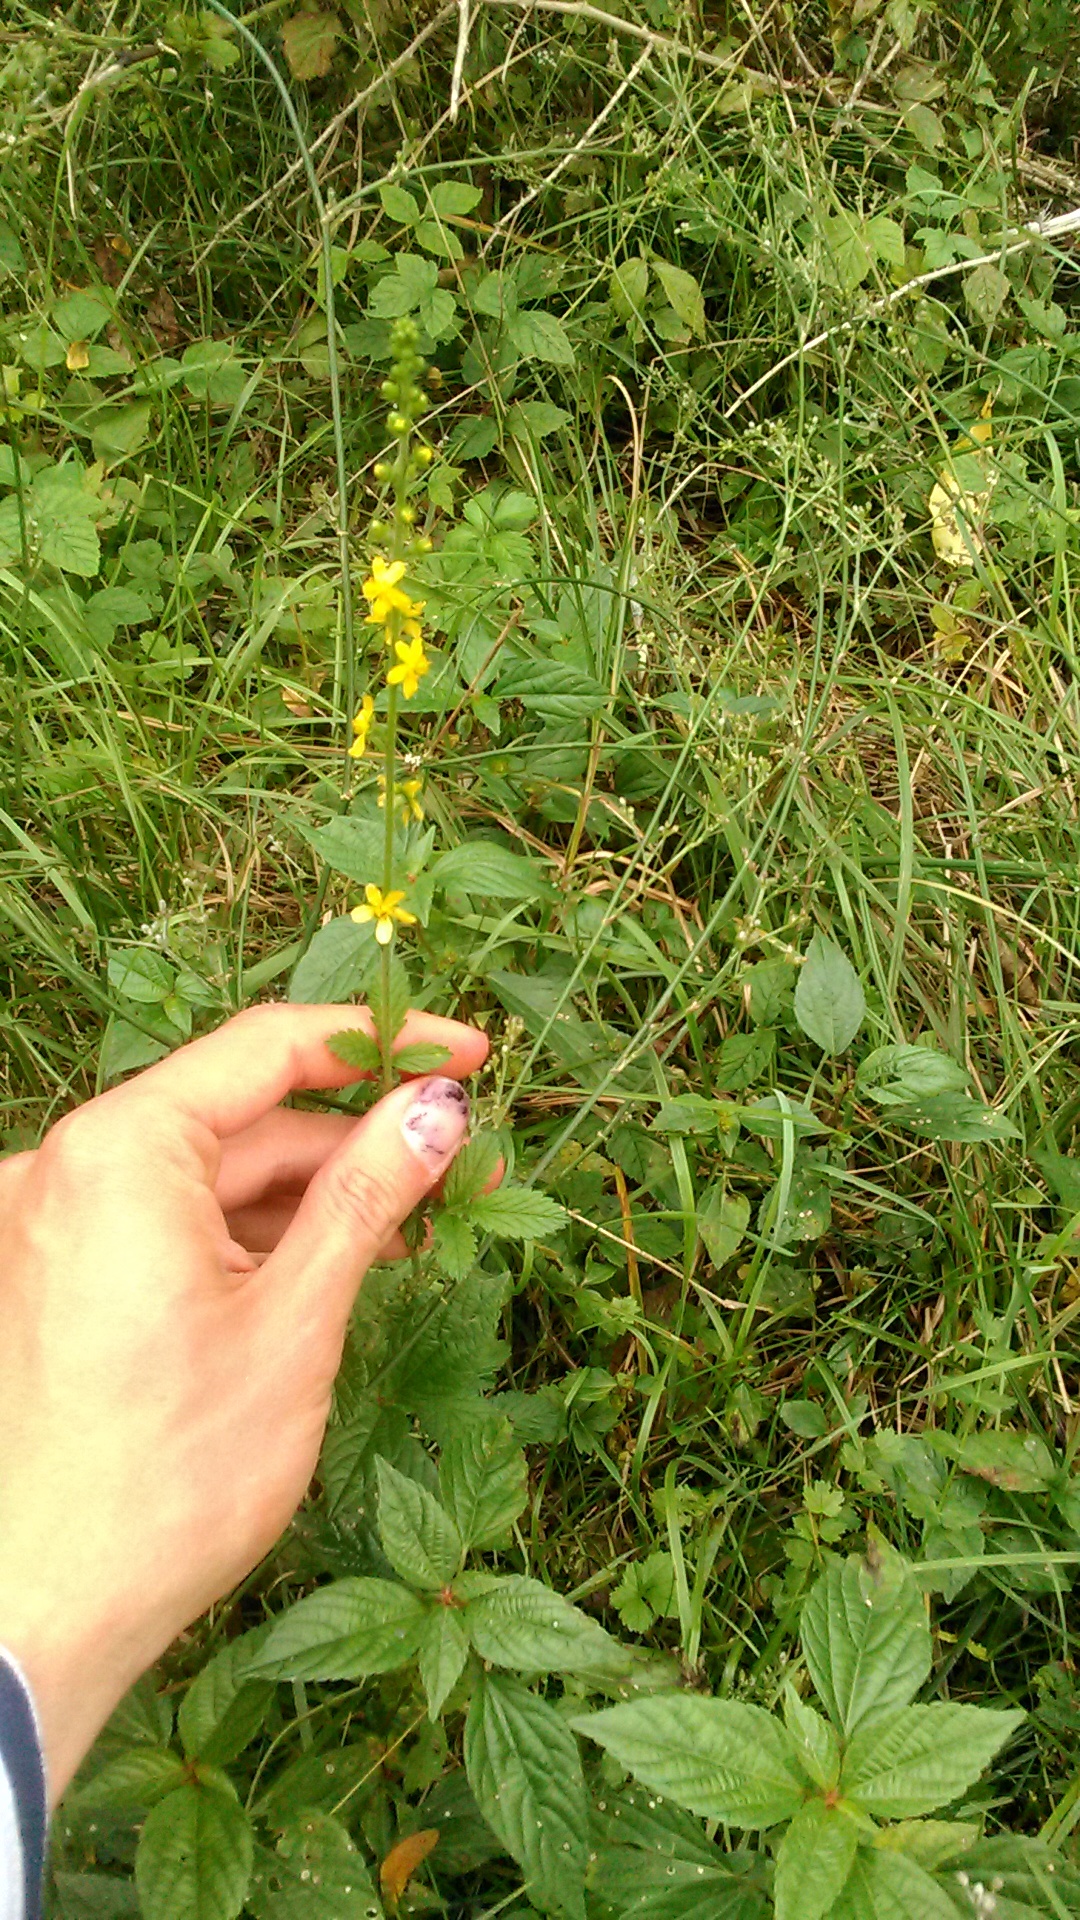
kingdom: Plantae
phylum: Tracheophyta
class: Magnoliopsida
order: Rosales
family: Rosaceae
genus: Agrimonia
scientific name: Agrimonia eupatoria
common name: Agrimony
